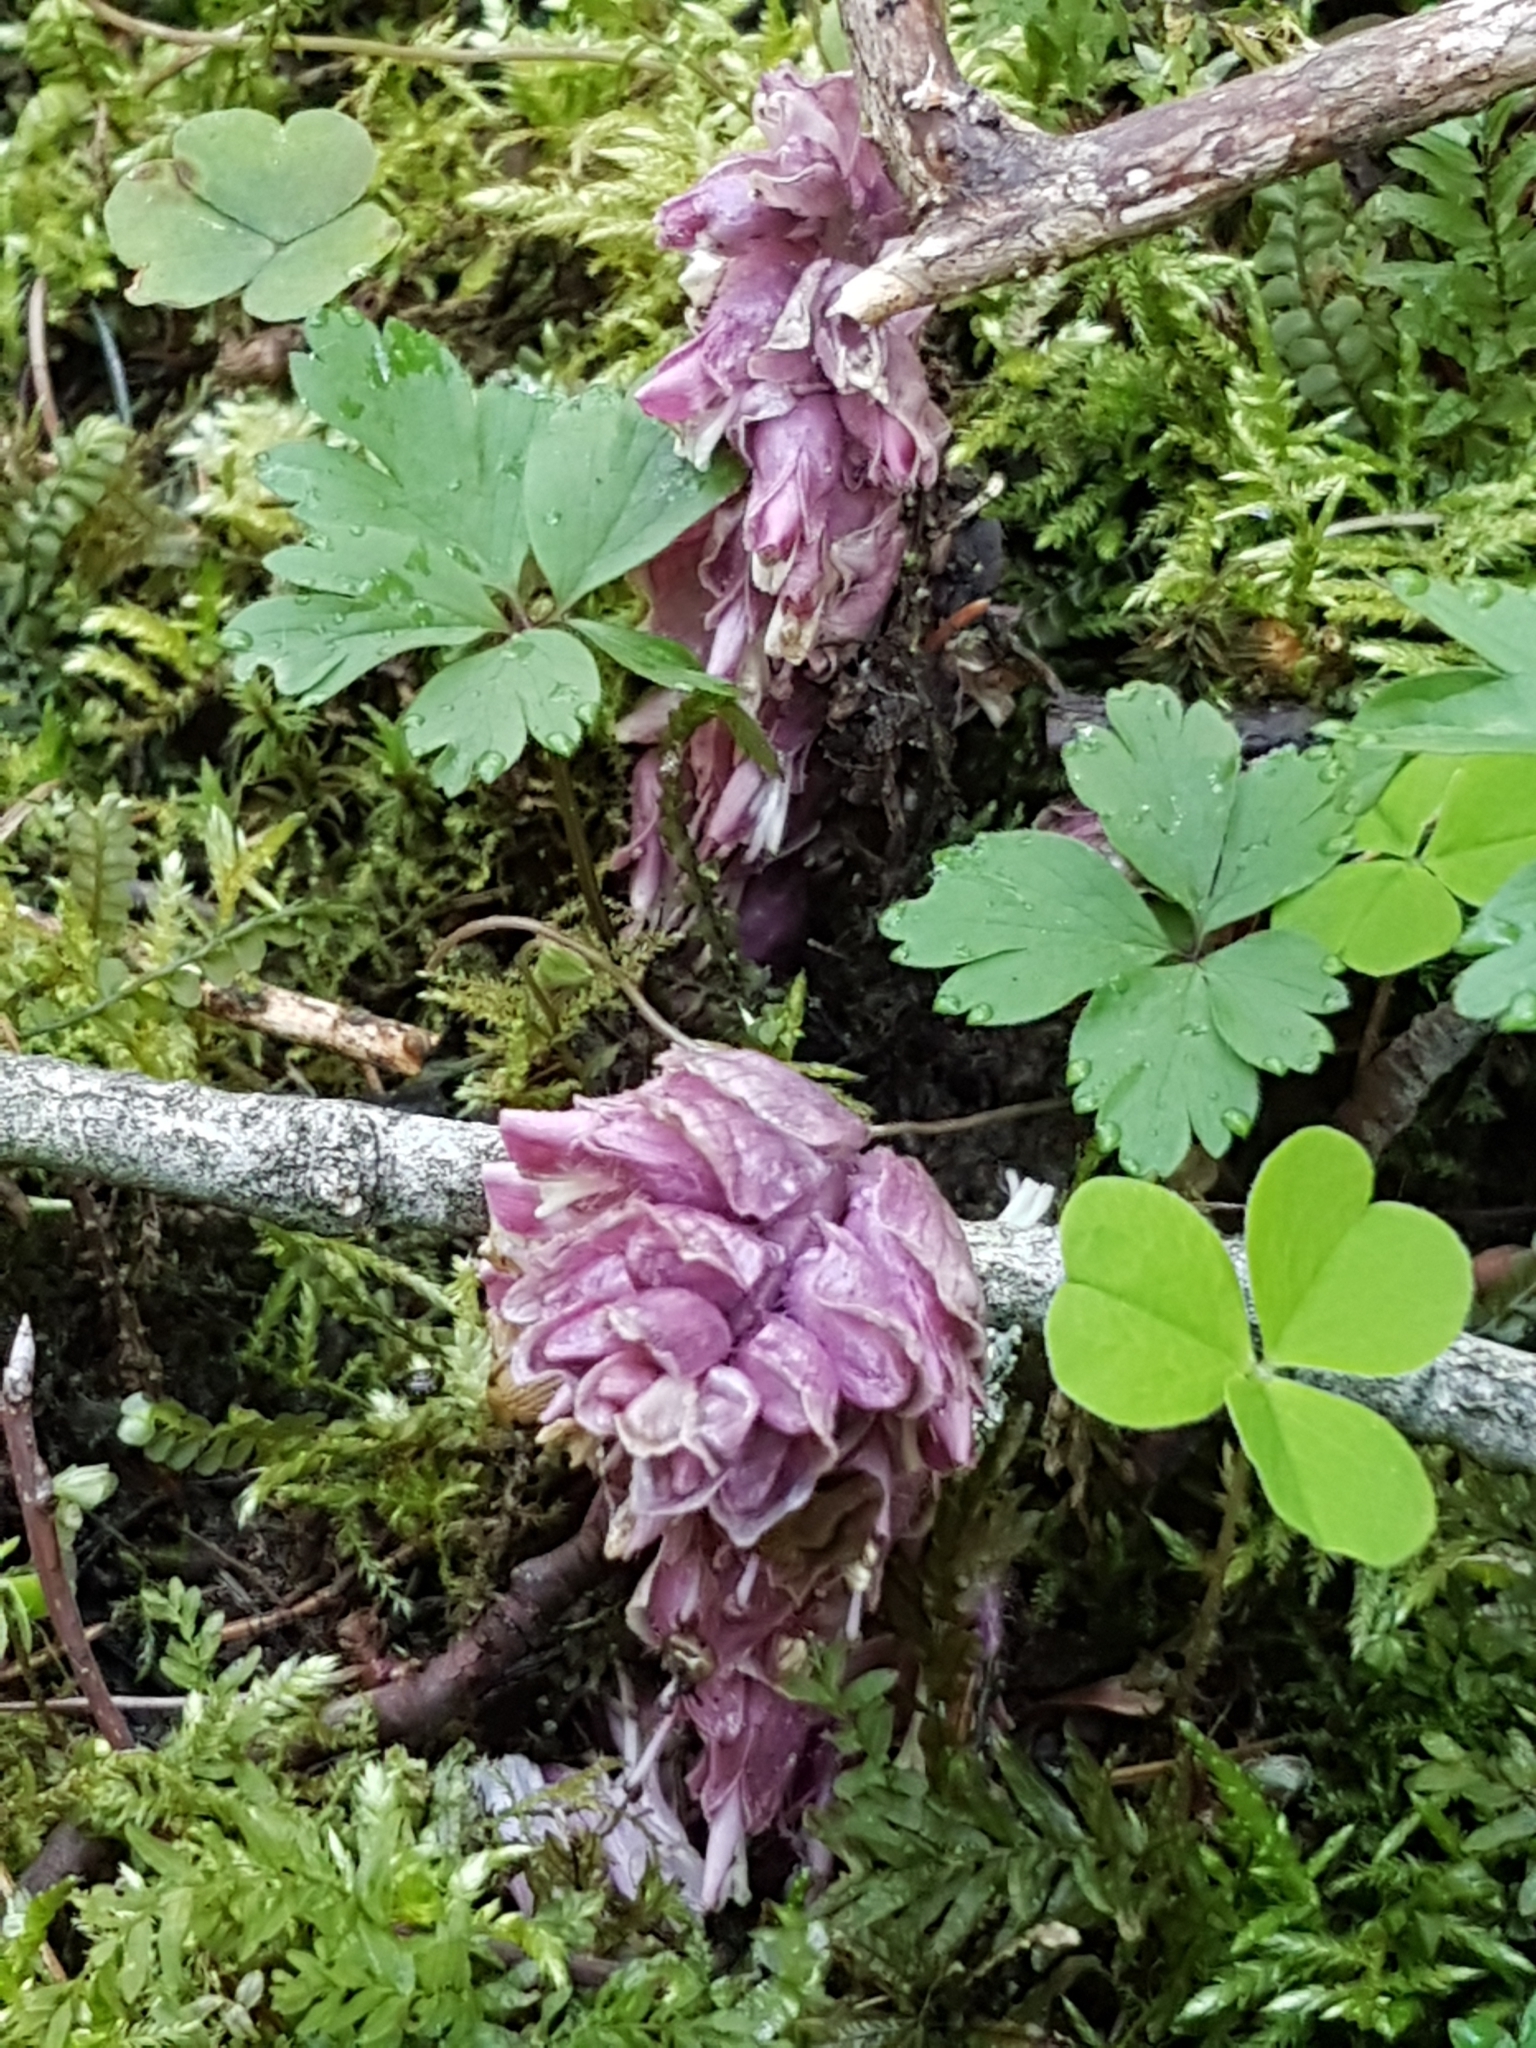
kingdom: Plantae
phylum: Tracheophyta
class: Magnoliopsida
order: Lamiales
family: Orobanchaceae
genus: Lathraea
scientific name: Lathraea squamaria
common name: Toothwort
